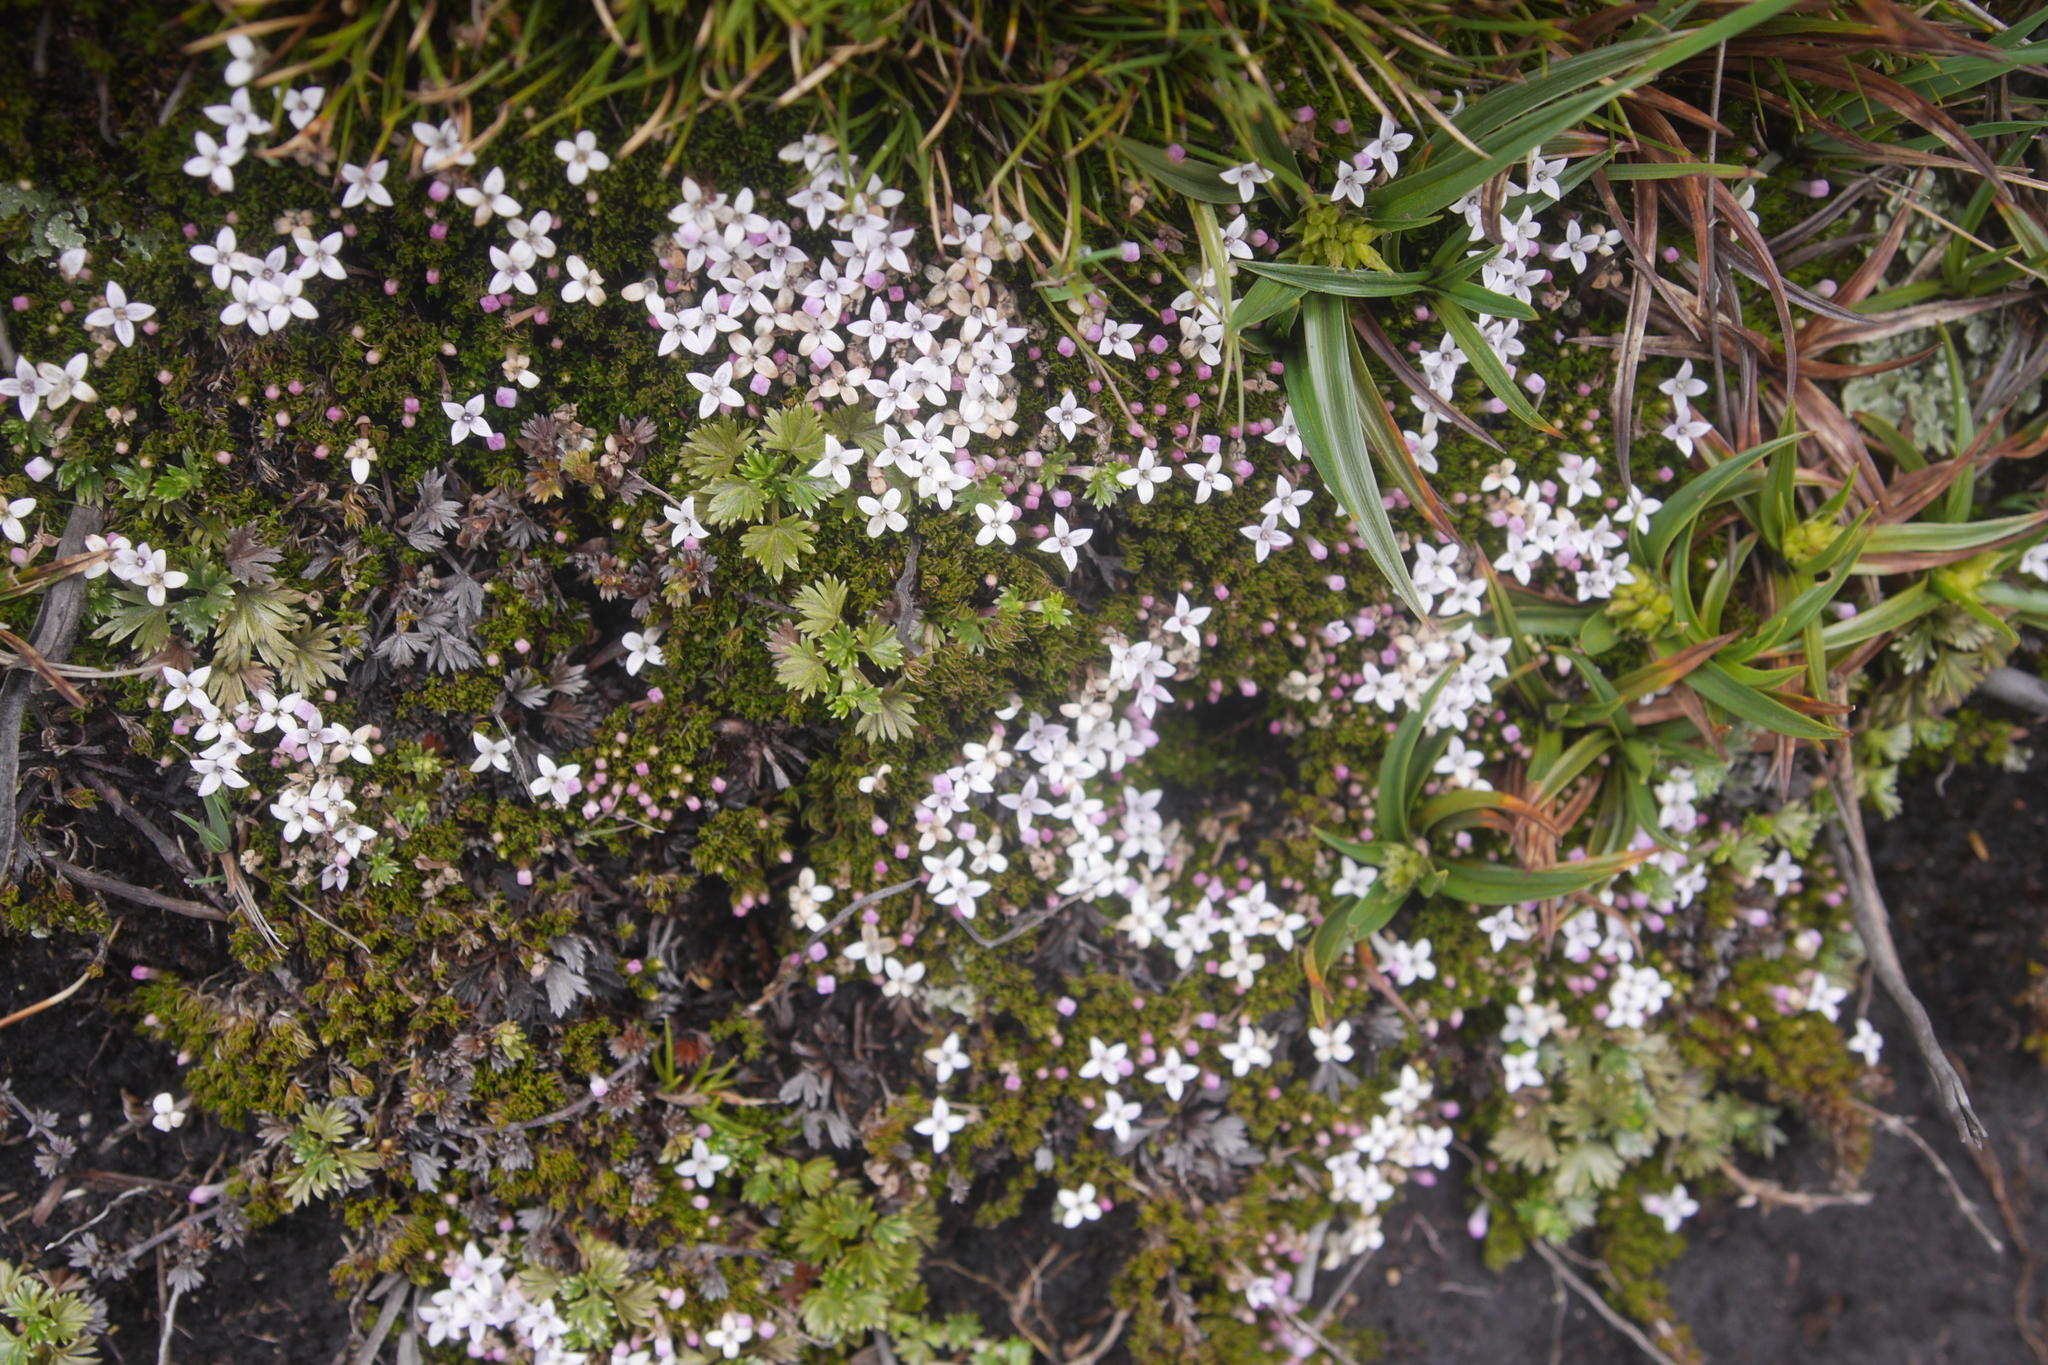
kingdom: Plantae
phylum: Tracheophyta
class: Magnoliopsida
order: Gentianales
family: Rubiaceae
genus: Arcytophyllum
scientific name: Arcytophyllum filiforme
